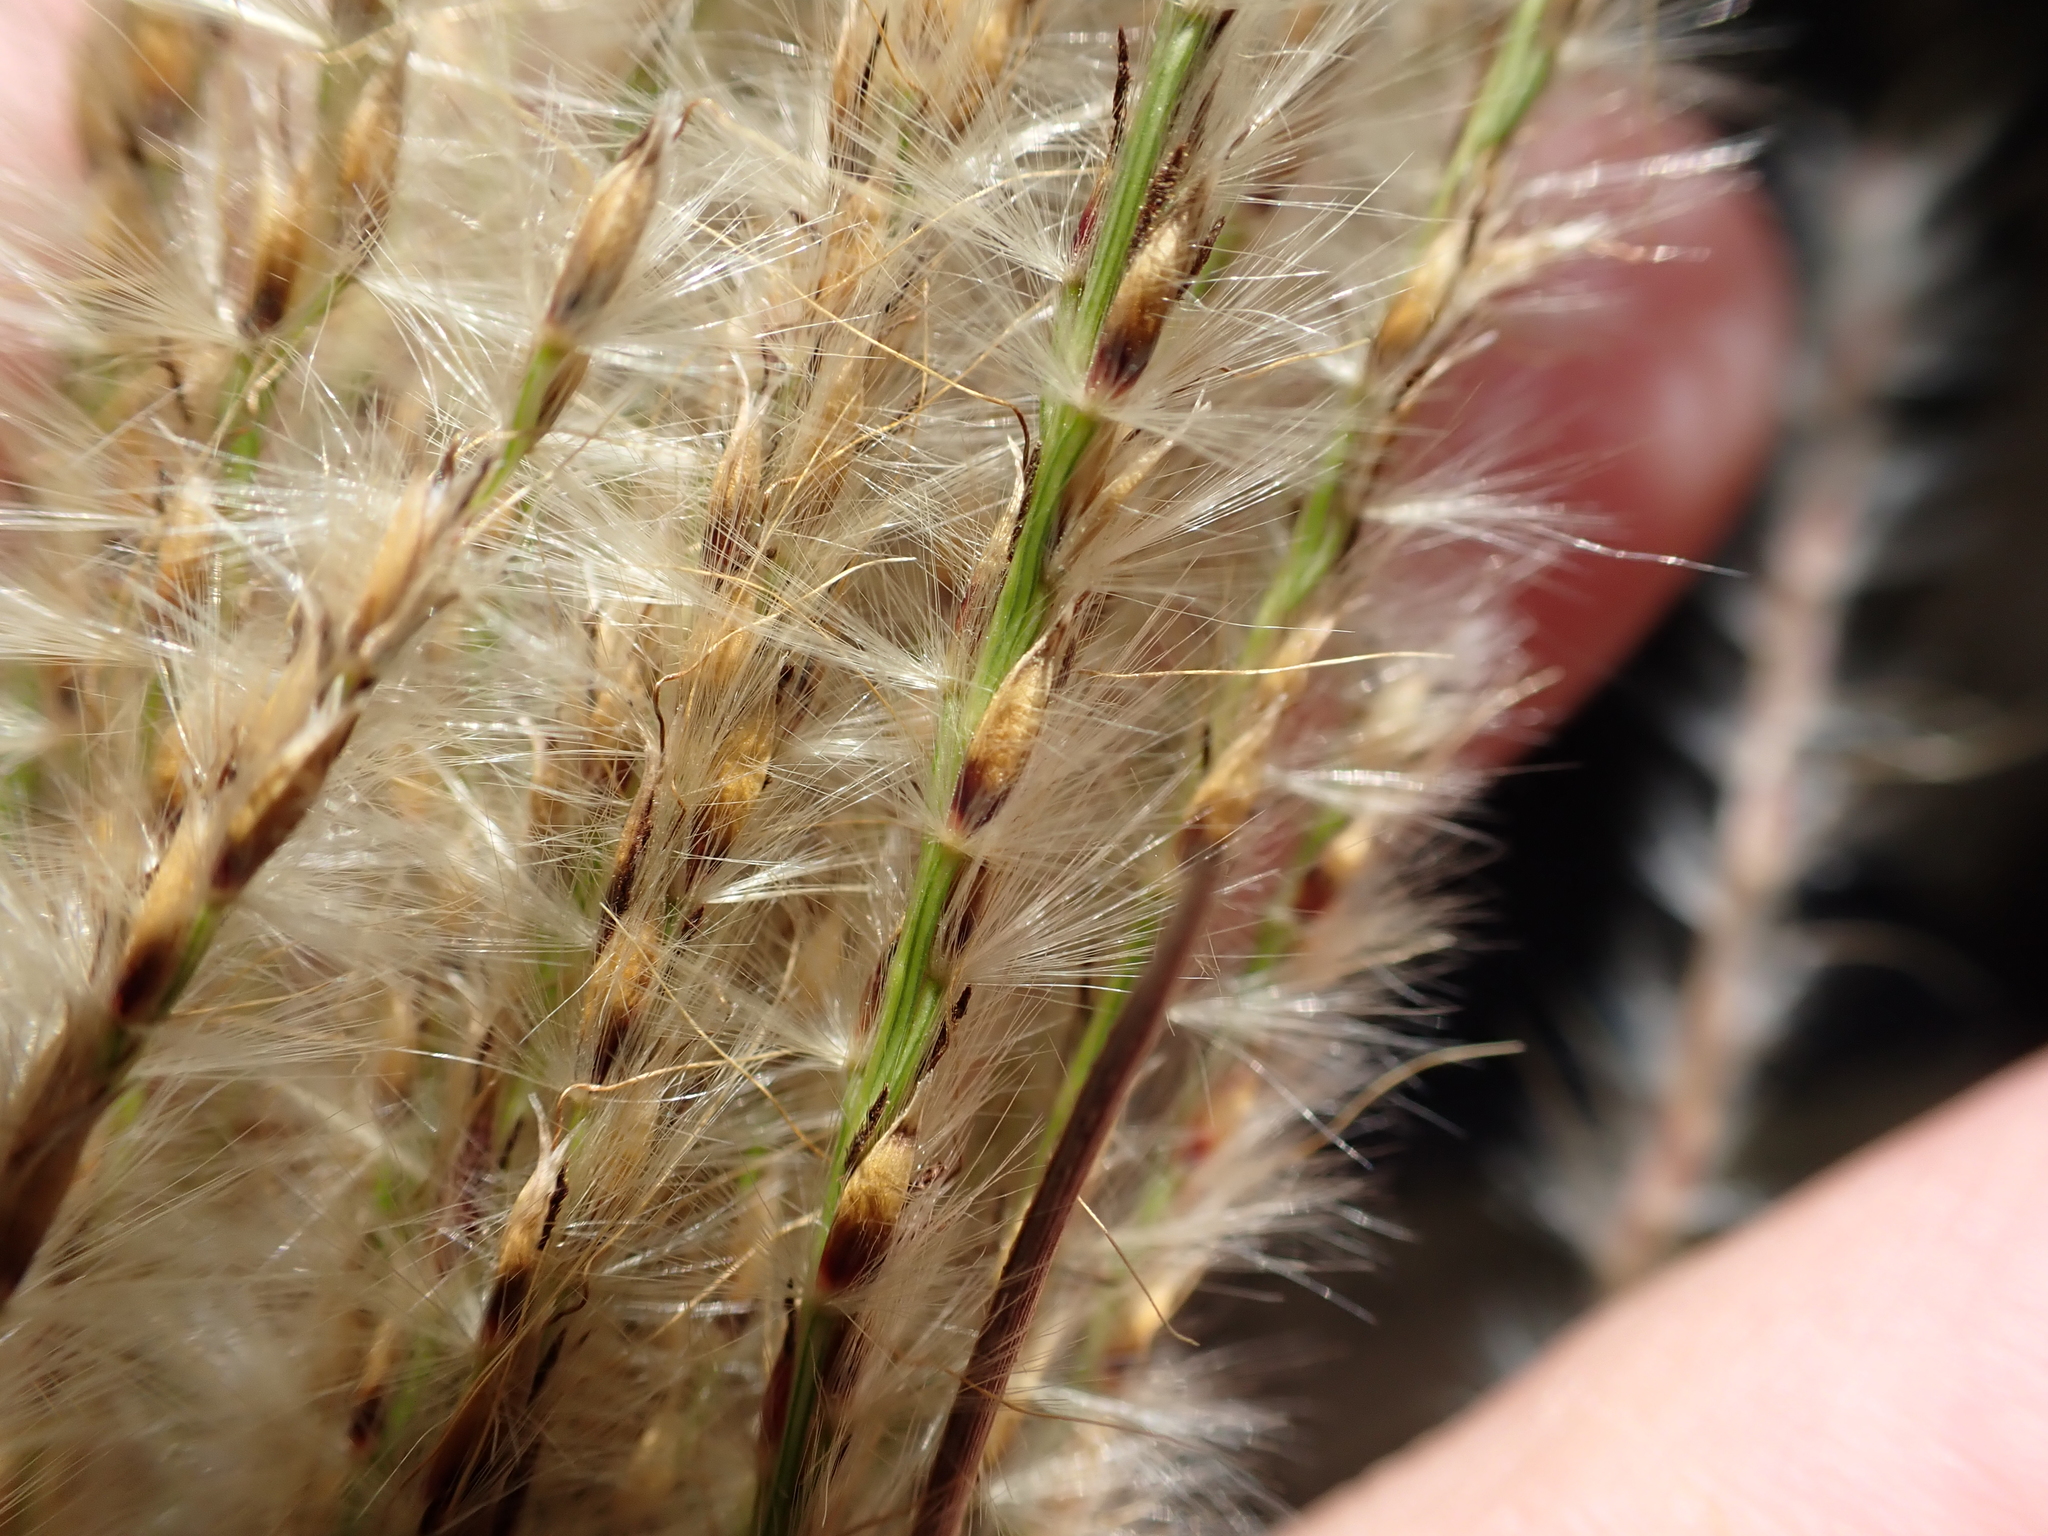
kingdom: Plantae
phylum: Tracheophyta
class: Liliopsida
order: Poales
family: Poaceae
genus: Miscanthus
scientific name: Miscanthus sinensis
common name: Chinese silvergrass
